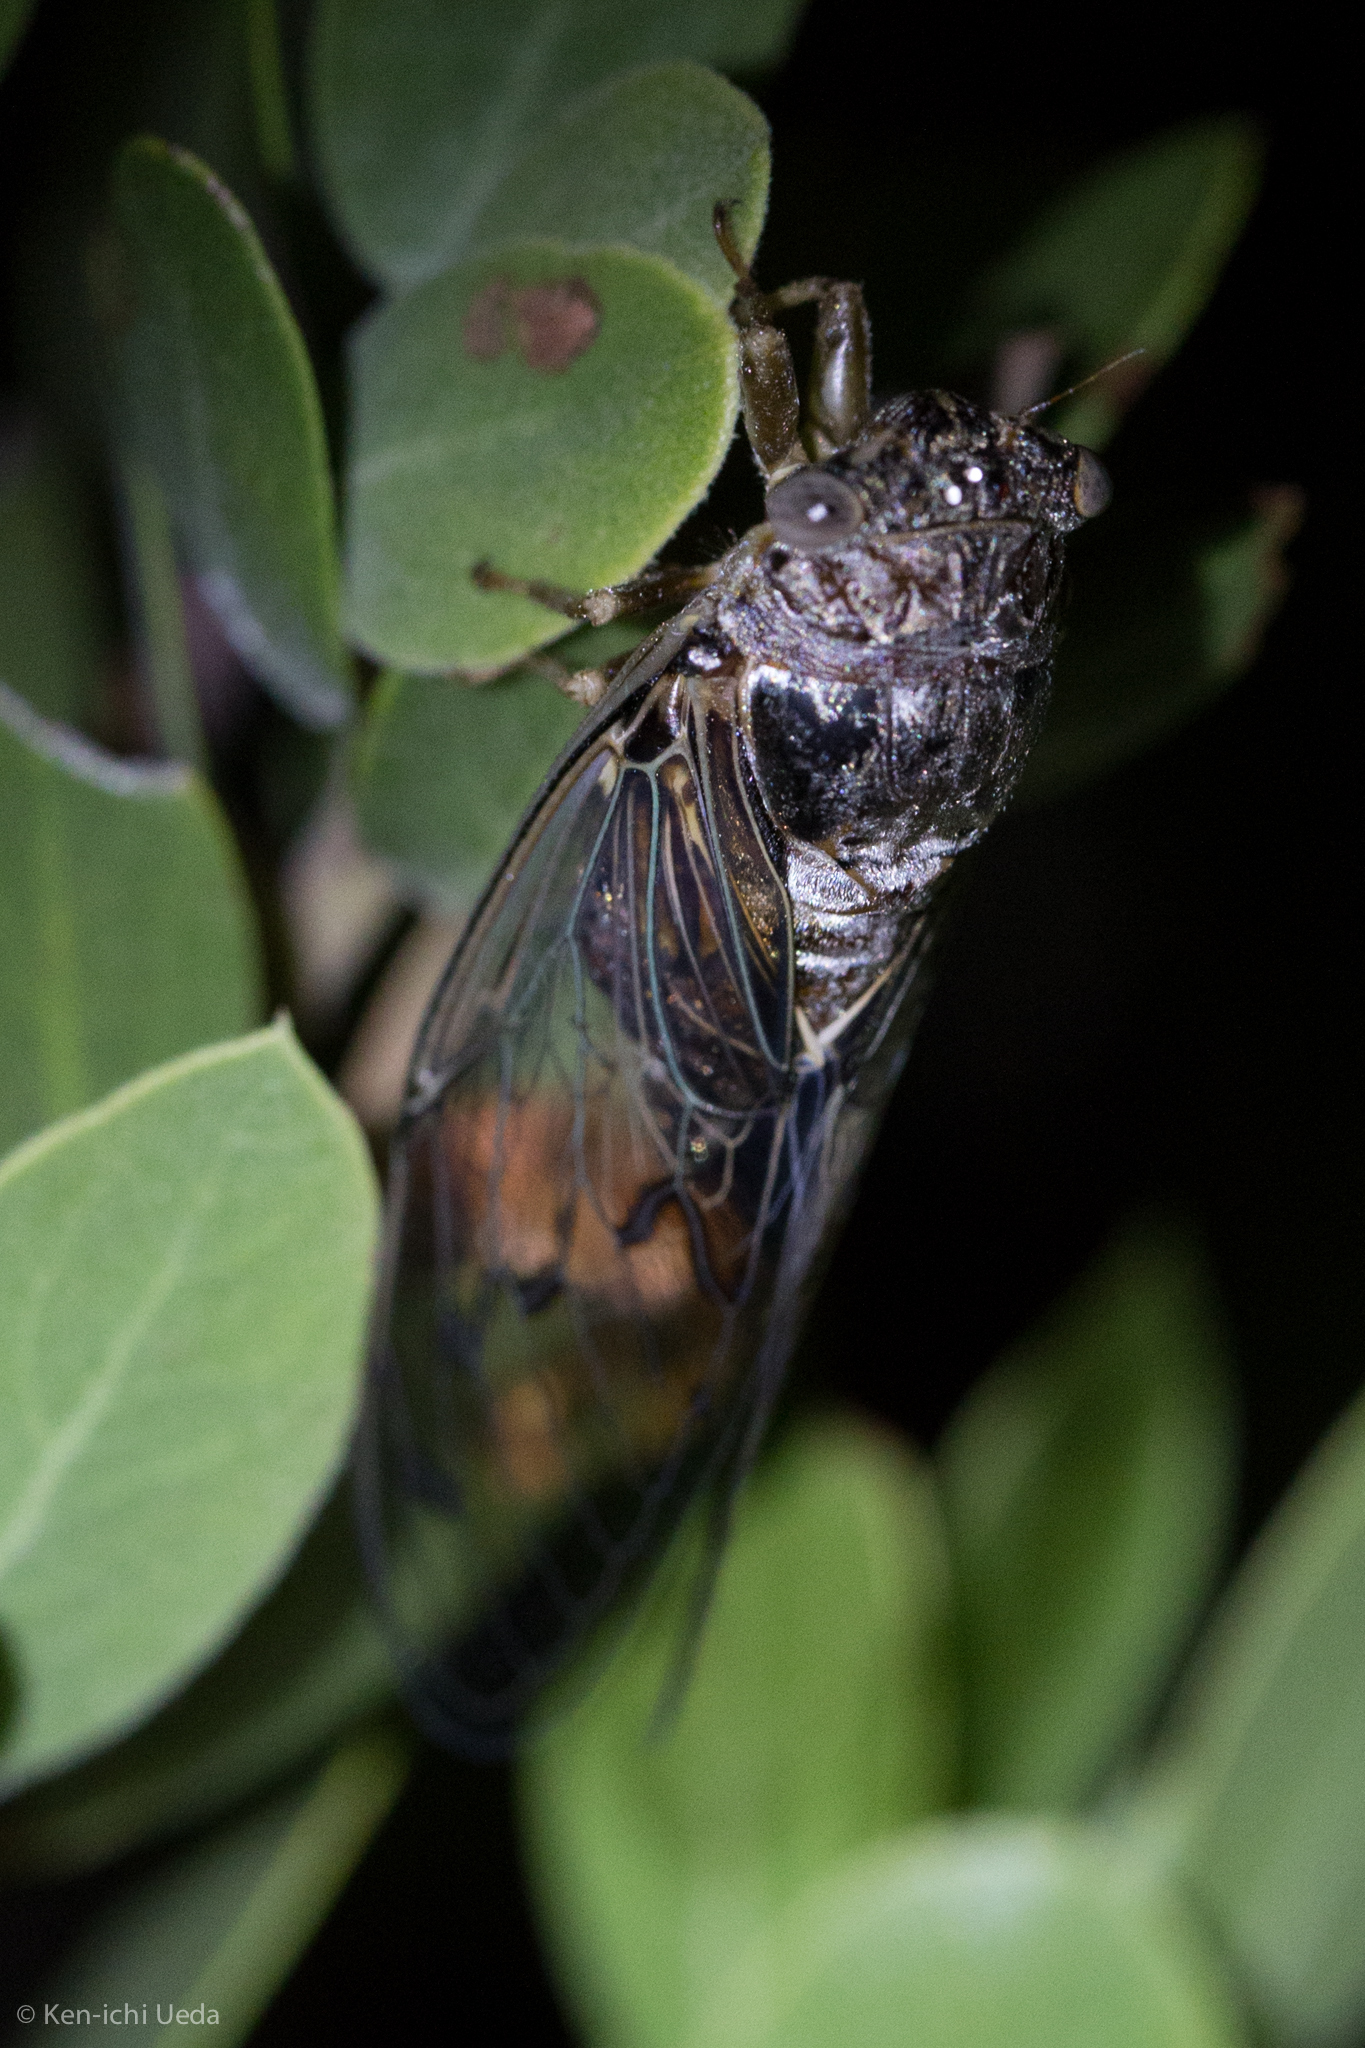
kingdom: Animalia
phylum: Arthropoda
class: Insecta
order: Hemiptera
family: Cicadidae
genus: Diceroprocta
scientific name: Diceroprocta swalei
